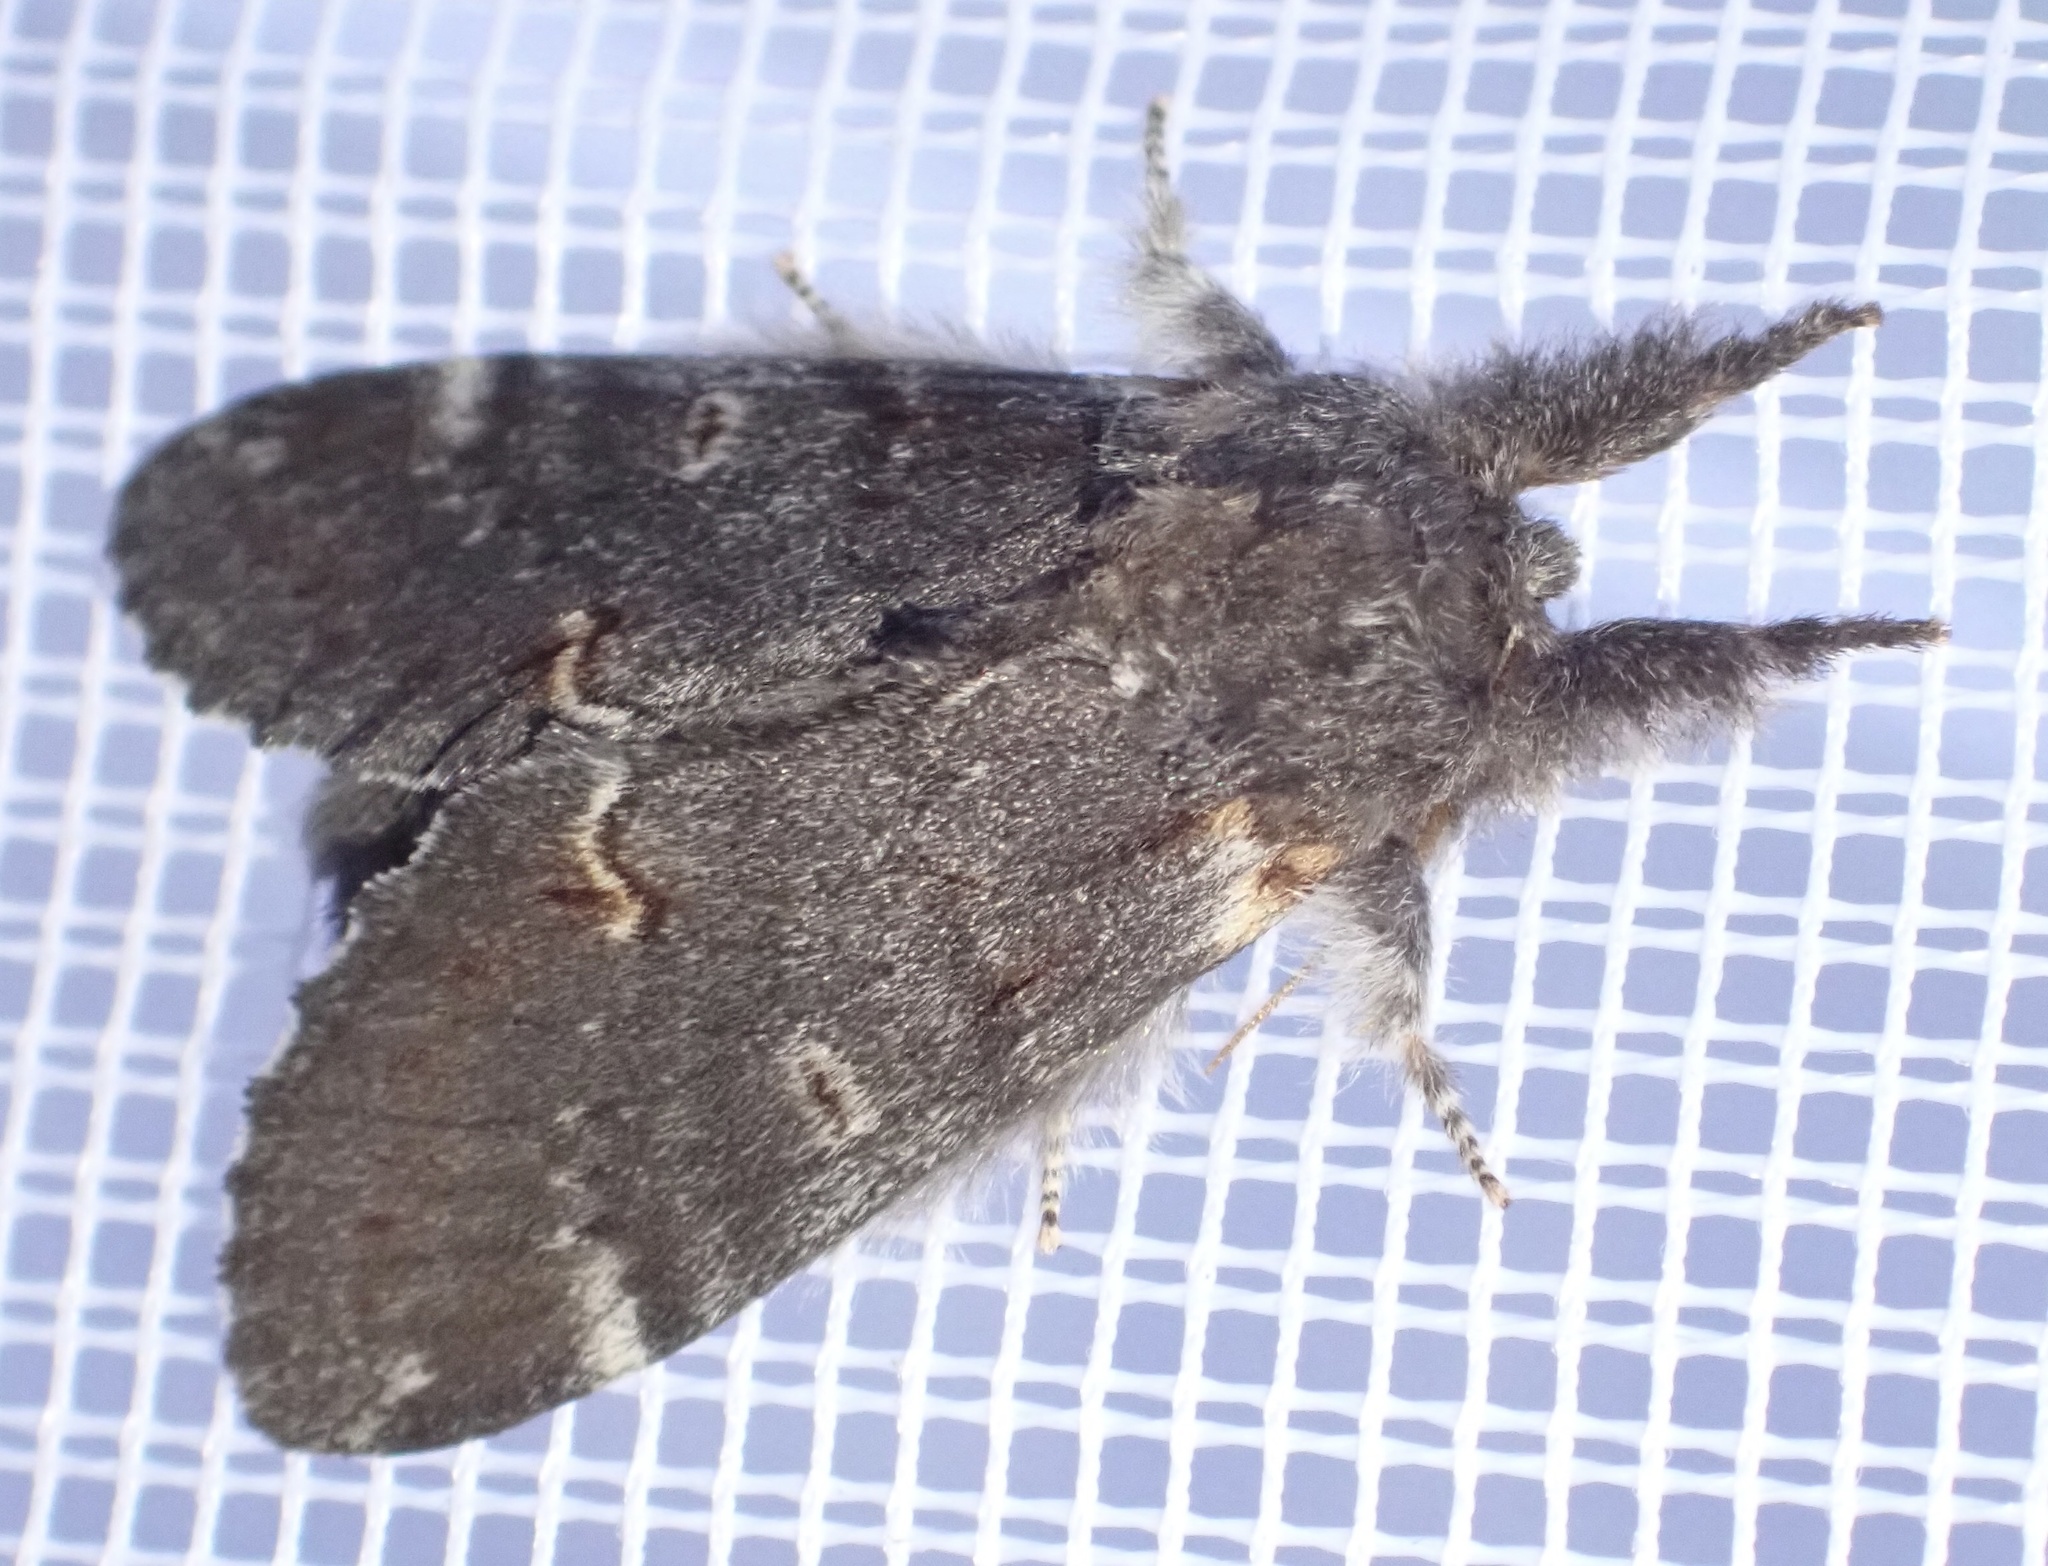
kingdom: Animalia
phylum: Arthropoda
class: Insecta
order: Lepidoptera
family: Notodontidae
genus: Notodonta
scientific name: Notodonta dromedarius
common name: Iron prominent
